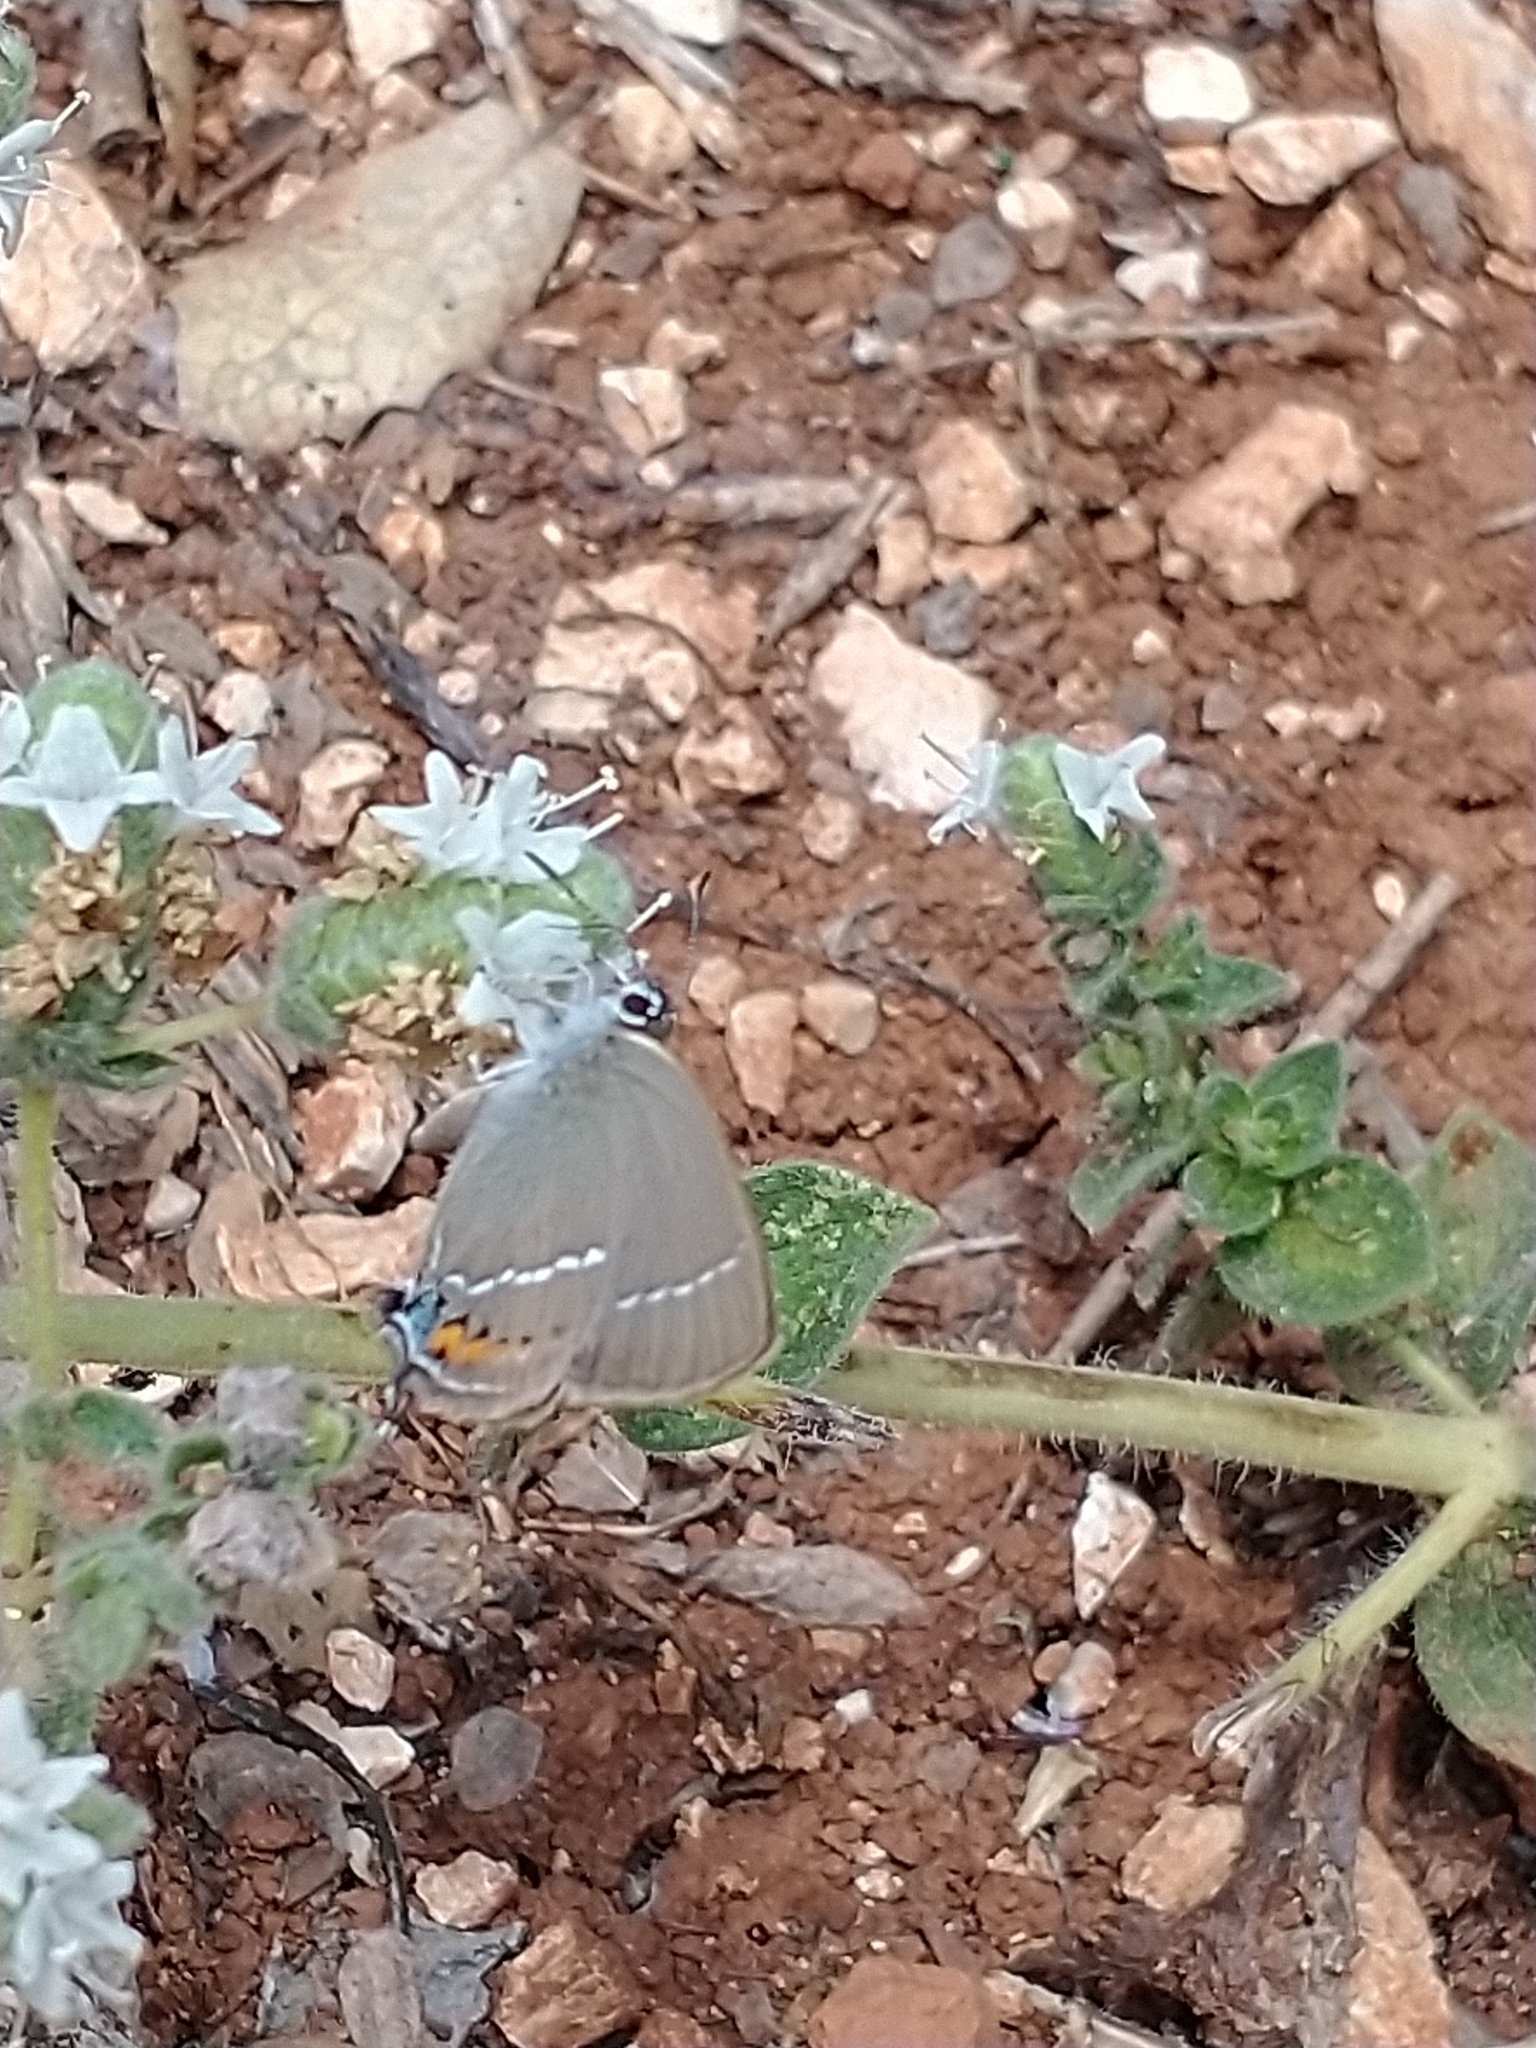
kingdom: Animalia
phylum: Arthropoda
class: Insecta
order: Lepidoptera
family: Lycaenidae
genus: Tuttiola
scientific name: Tuttiola spini
